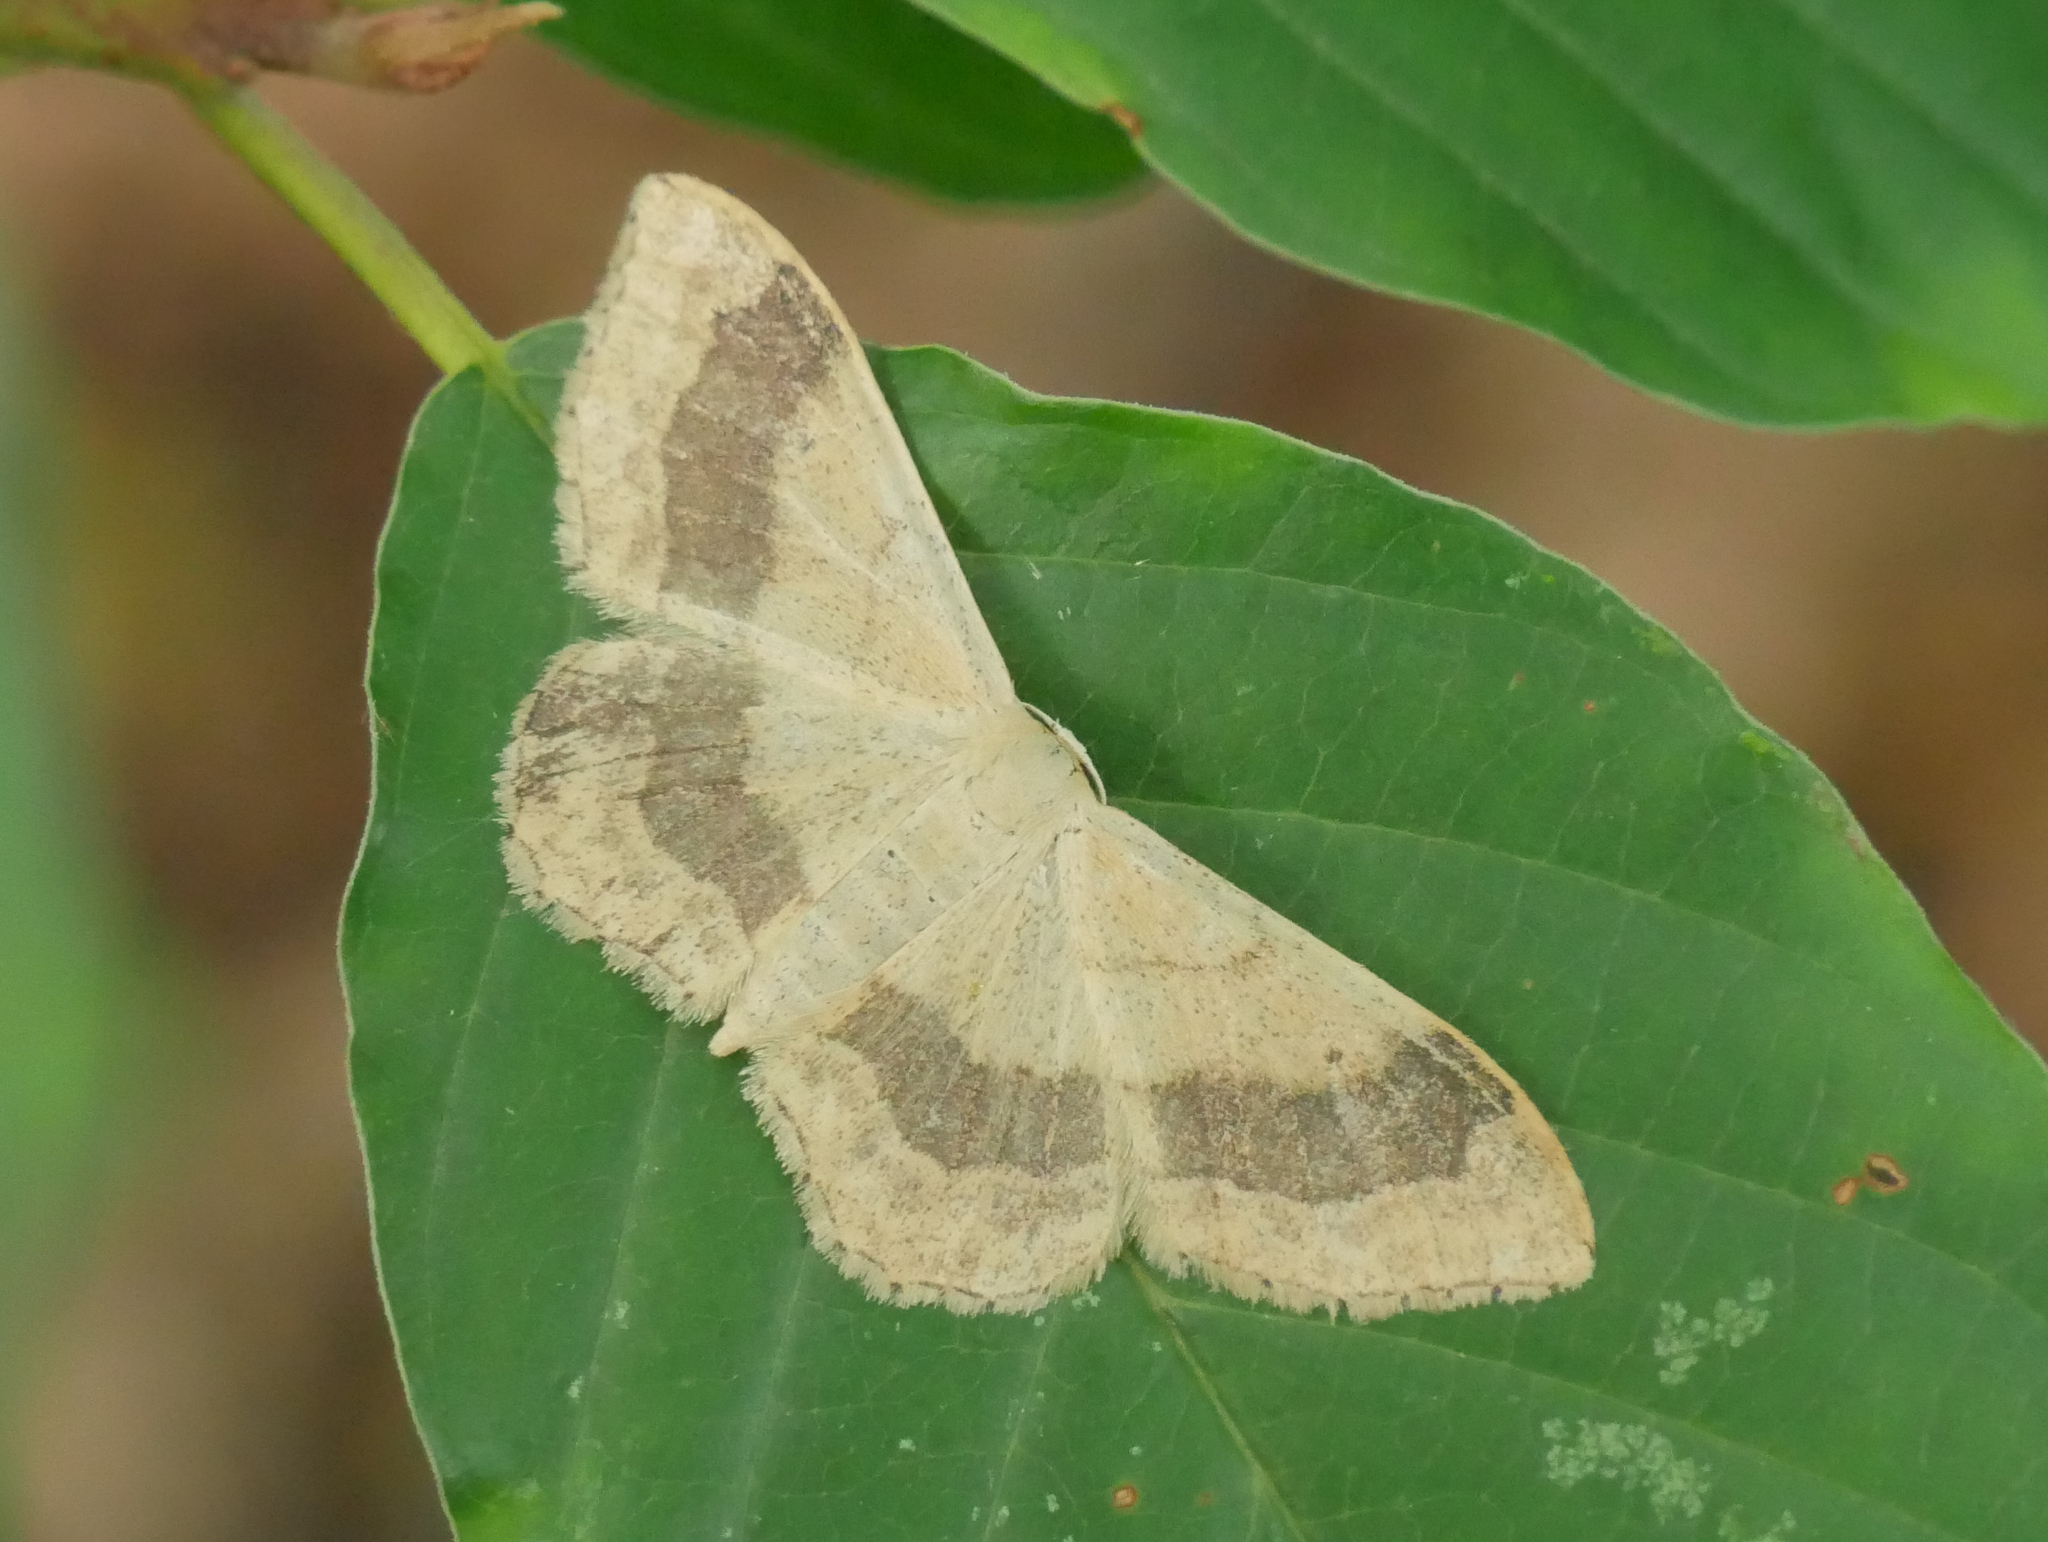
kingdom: Animalia
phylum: Arthropoda
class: Insecta
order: Lepidoptera
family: Geometridae
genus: Idaea
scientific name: Idaea aversata
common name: Riband wave
